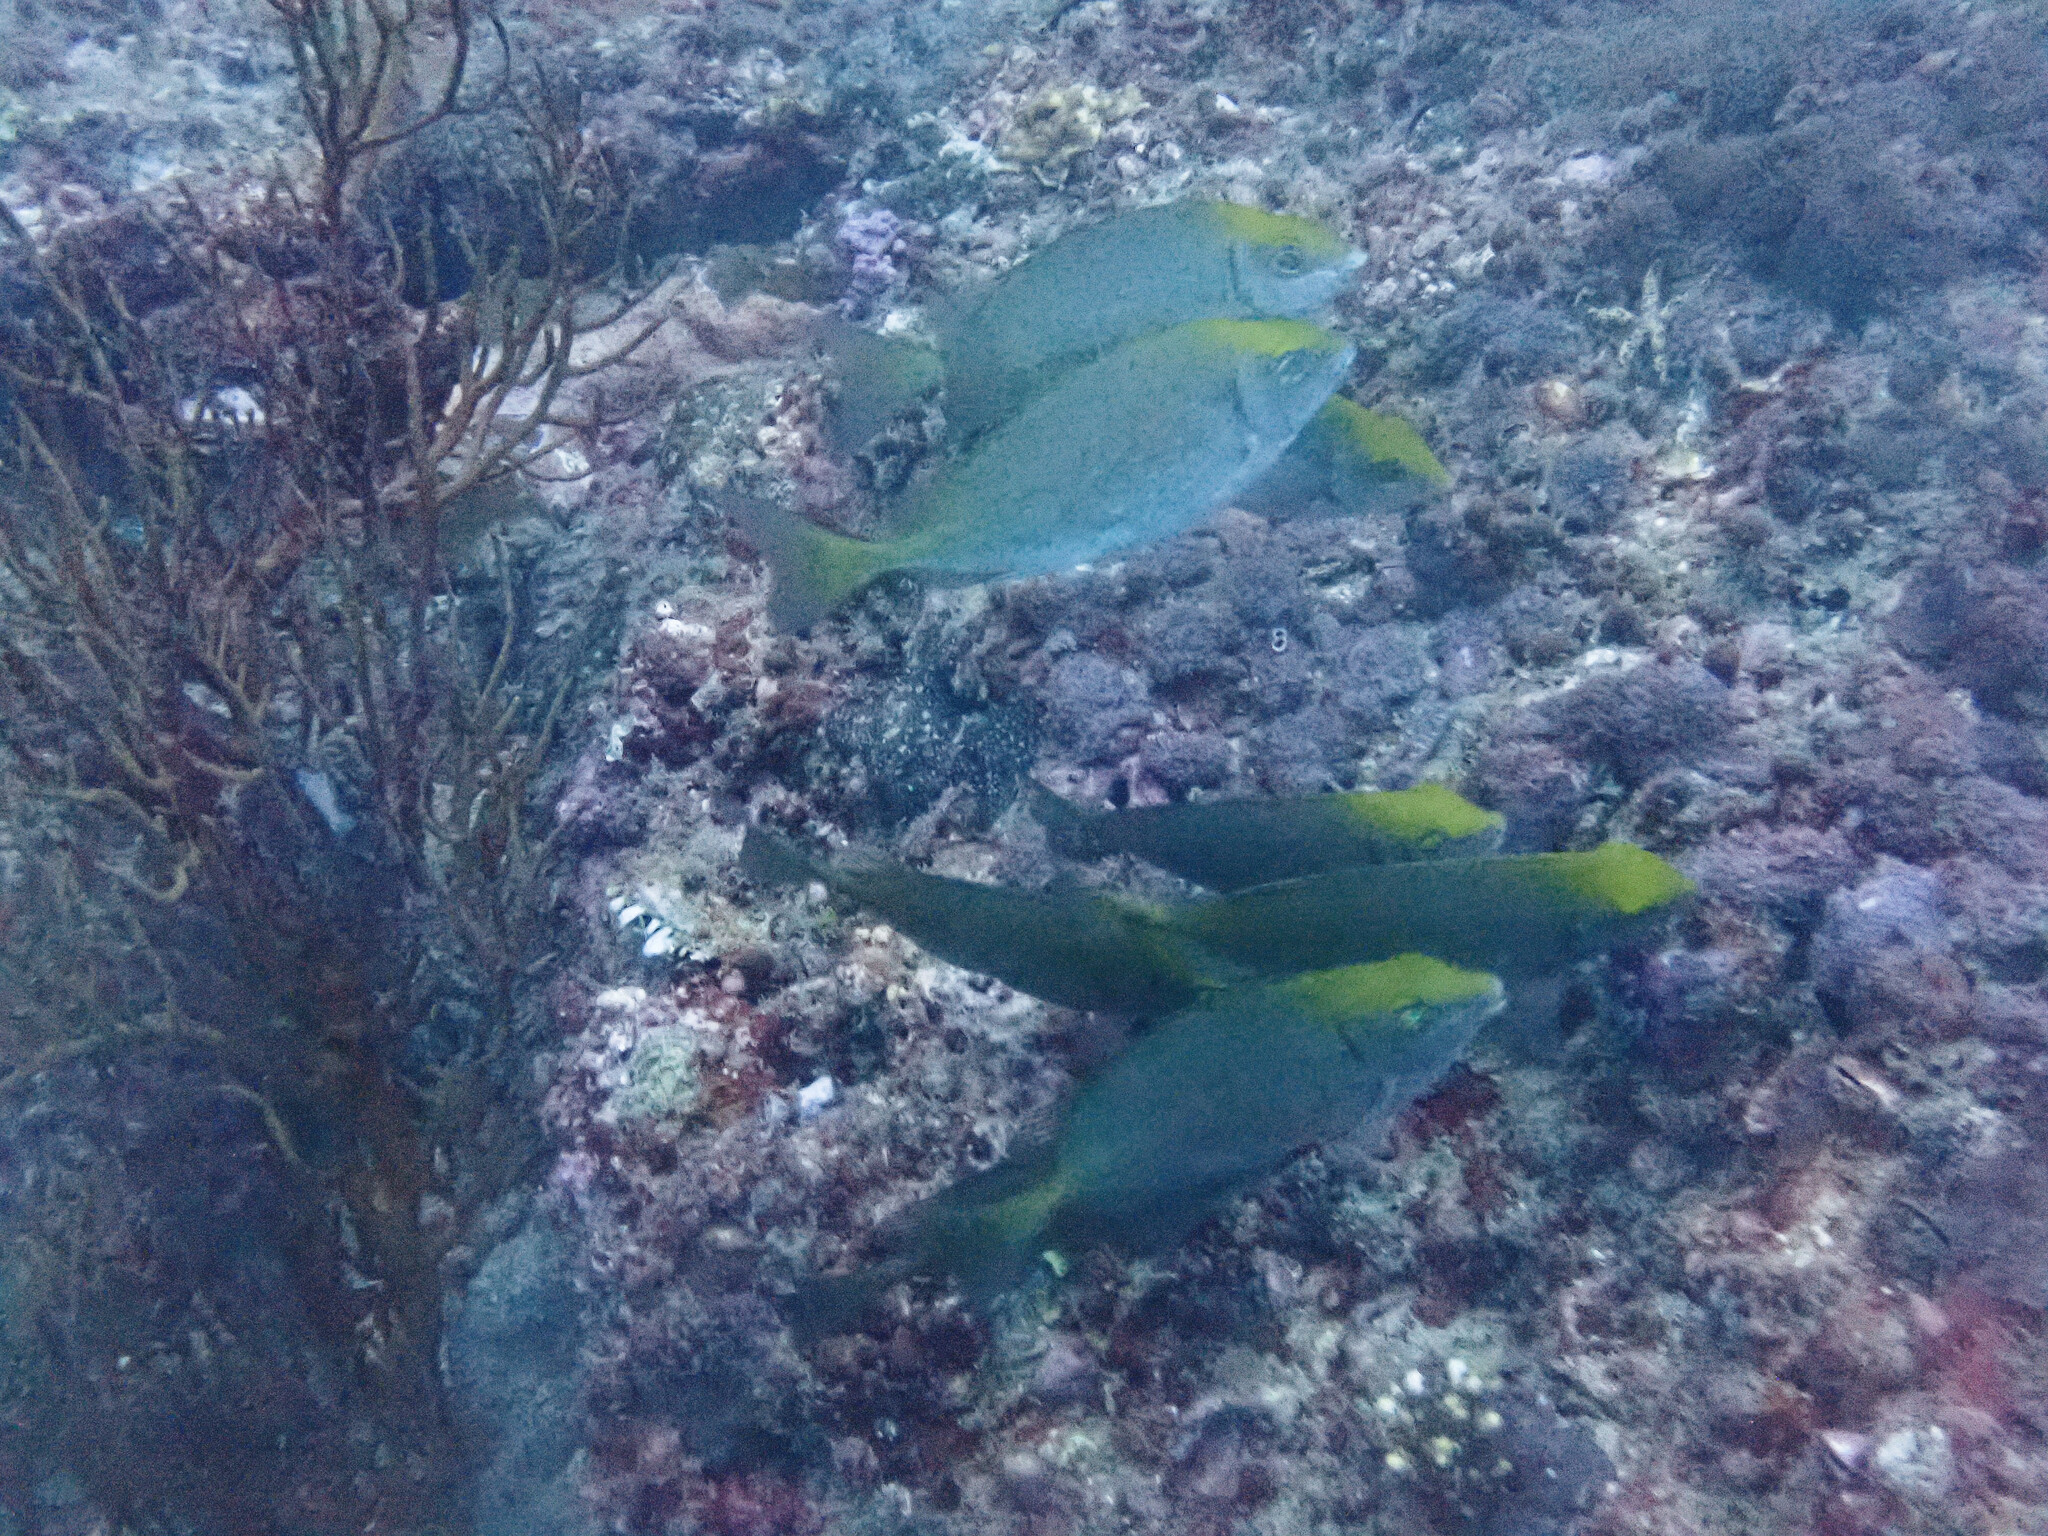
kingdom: Animalia
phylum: Chordata
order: Perciformes
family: Siganidae
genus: Siganus
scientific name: Siganus fuscescens
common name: Dusky rabbitfish
